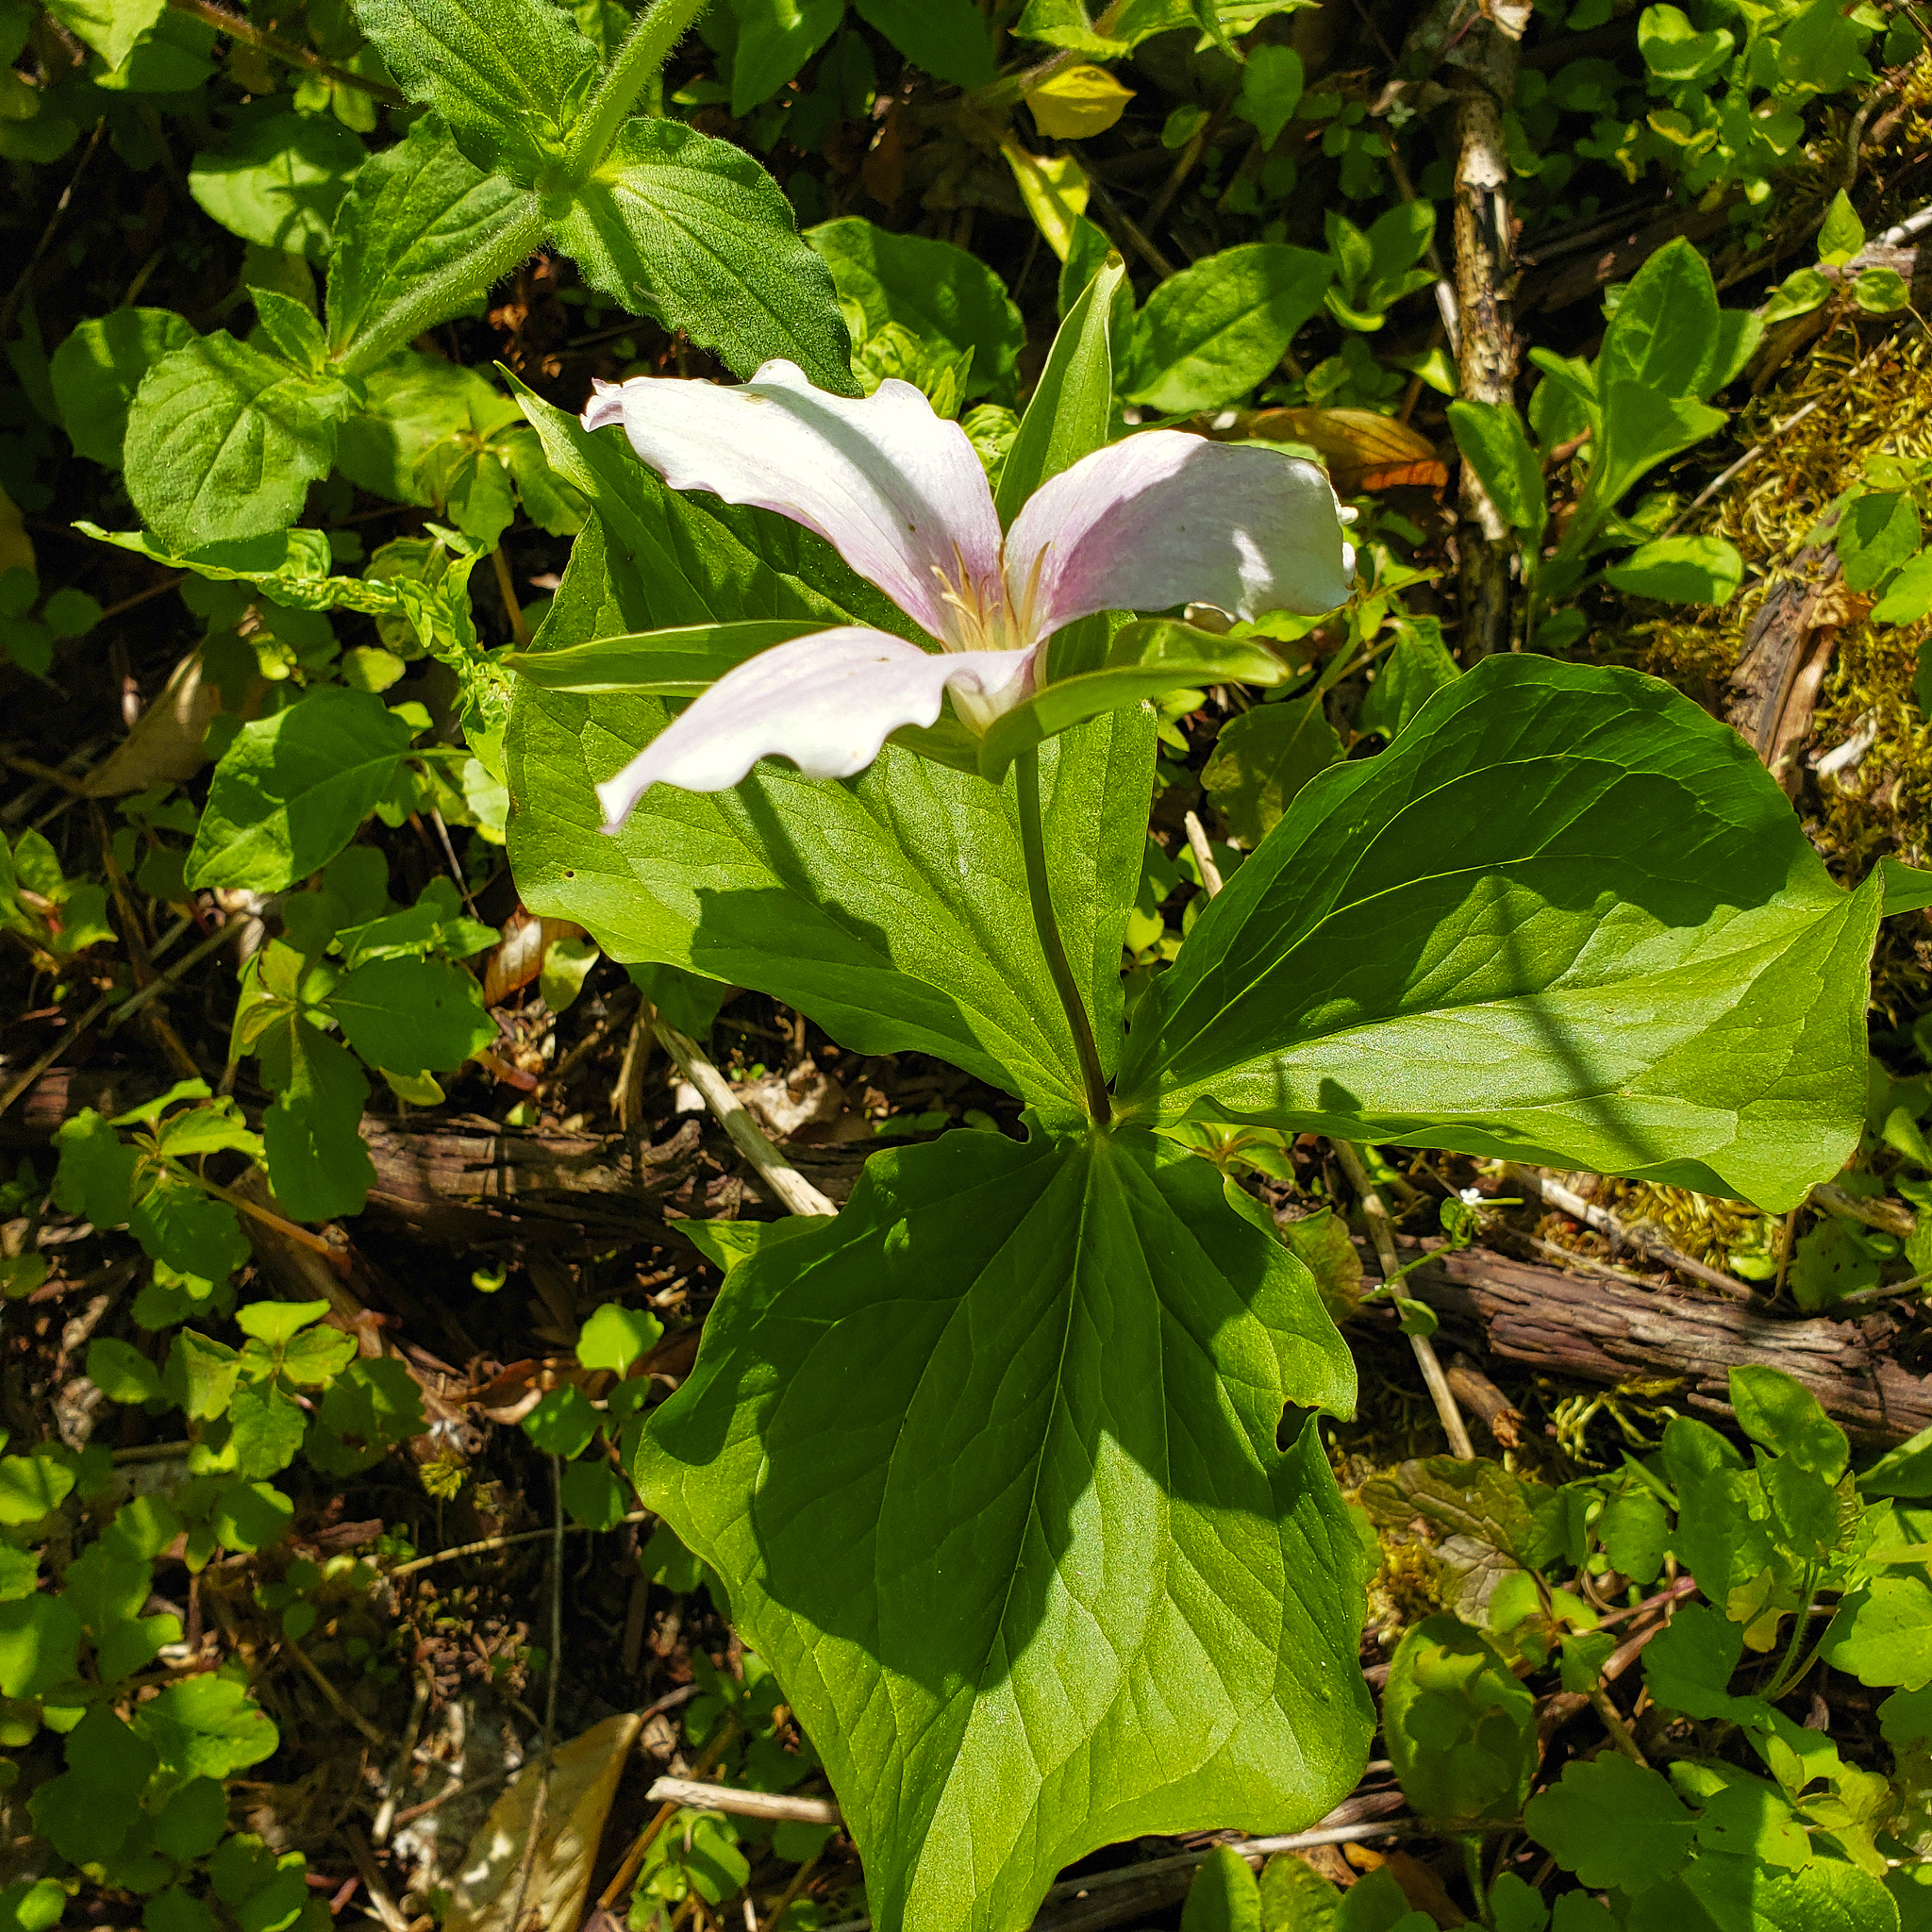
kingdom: Plantae
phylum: Tracheophyta
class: Liliopsida
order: Liliales
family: Melanthiaceae
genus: Trillium
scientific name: Trillium grandiflorum
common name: Great white trillium
